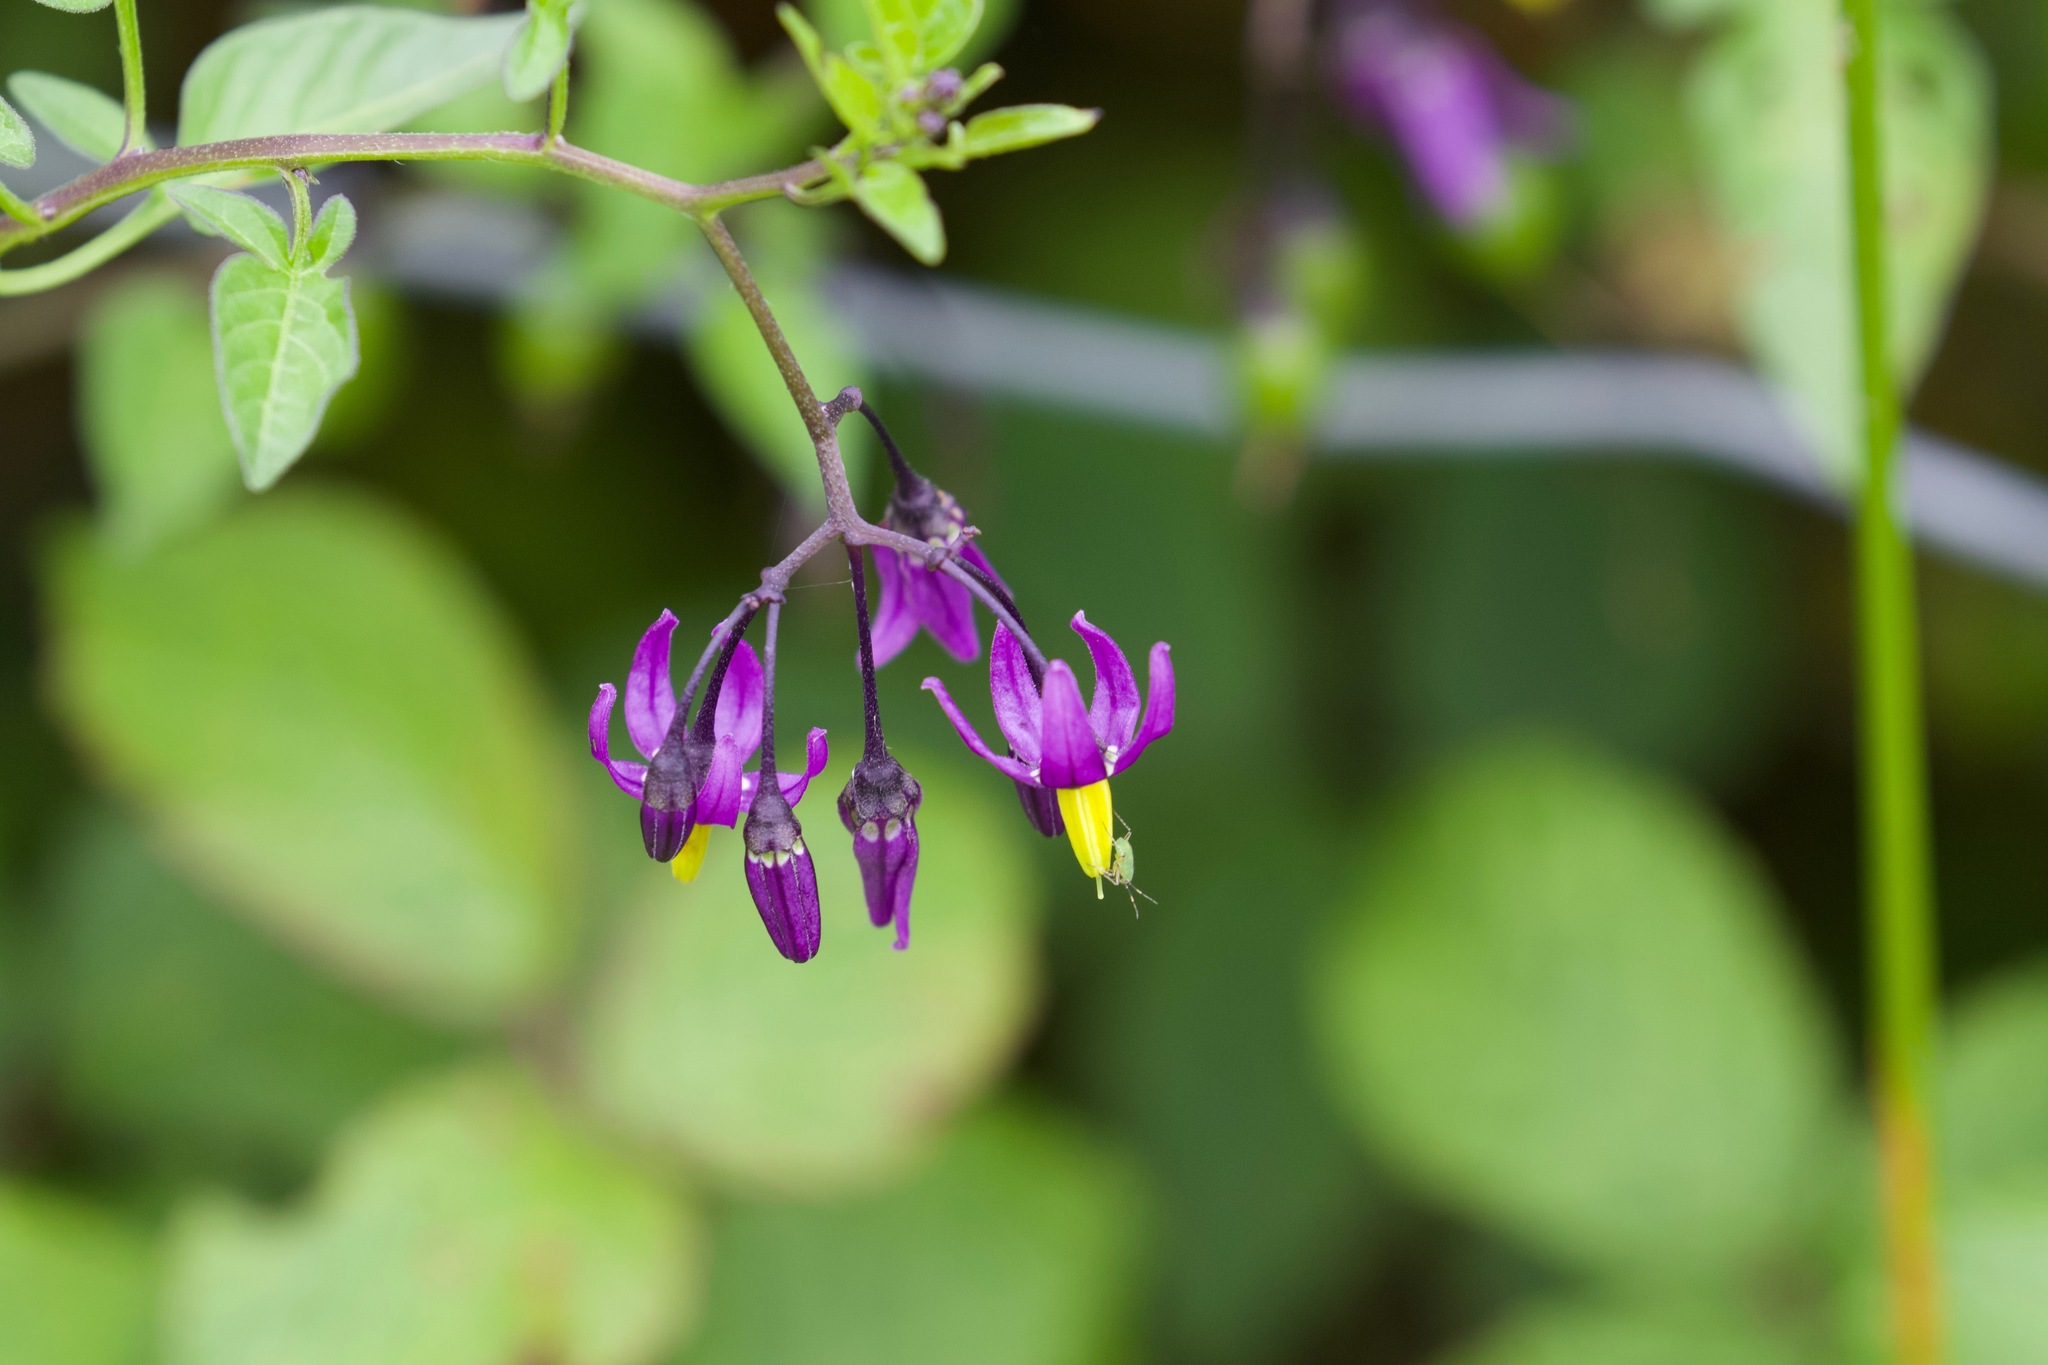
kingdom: Plantae
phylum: Tracheophyta
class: Magnoliopsida
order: Solanales
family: Solanaceae
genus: Solanum
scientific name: Solanum dulcamara
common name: Climbing nightshade
